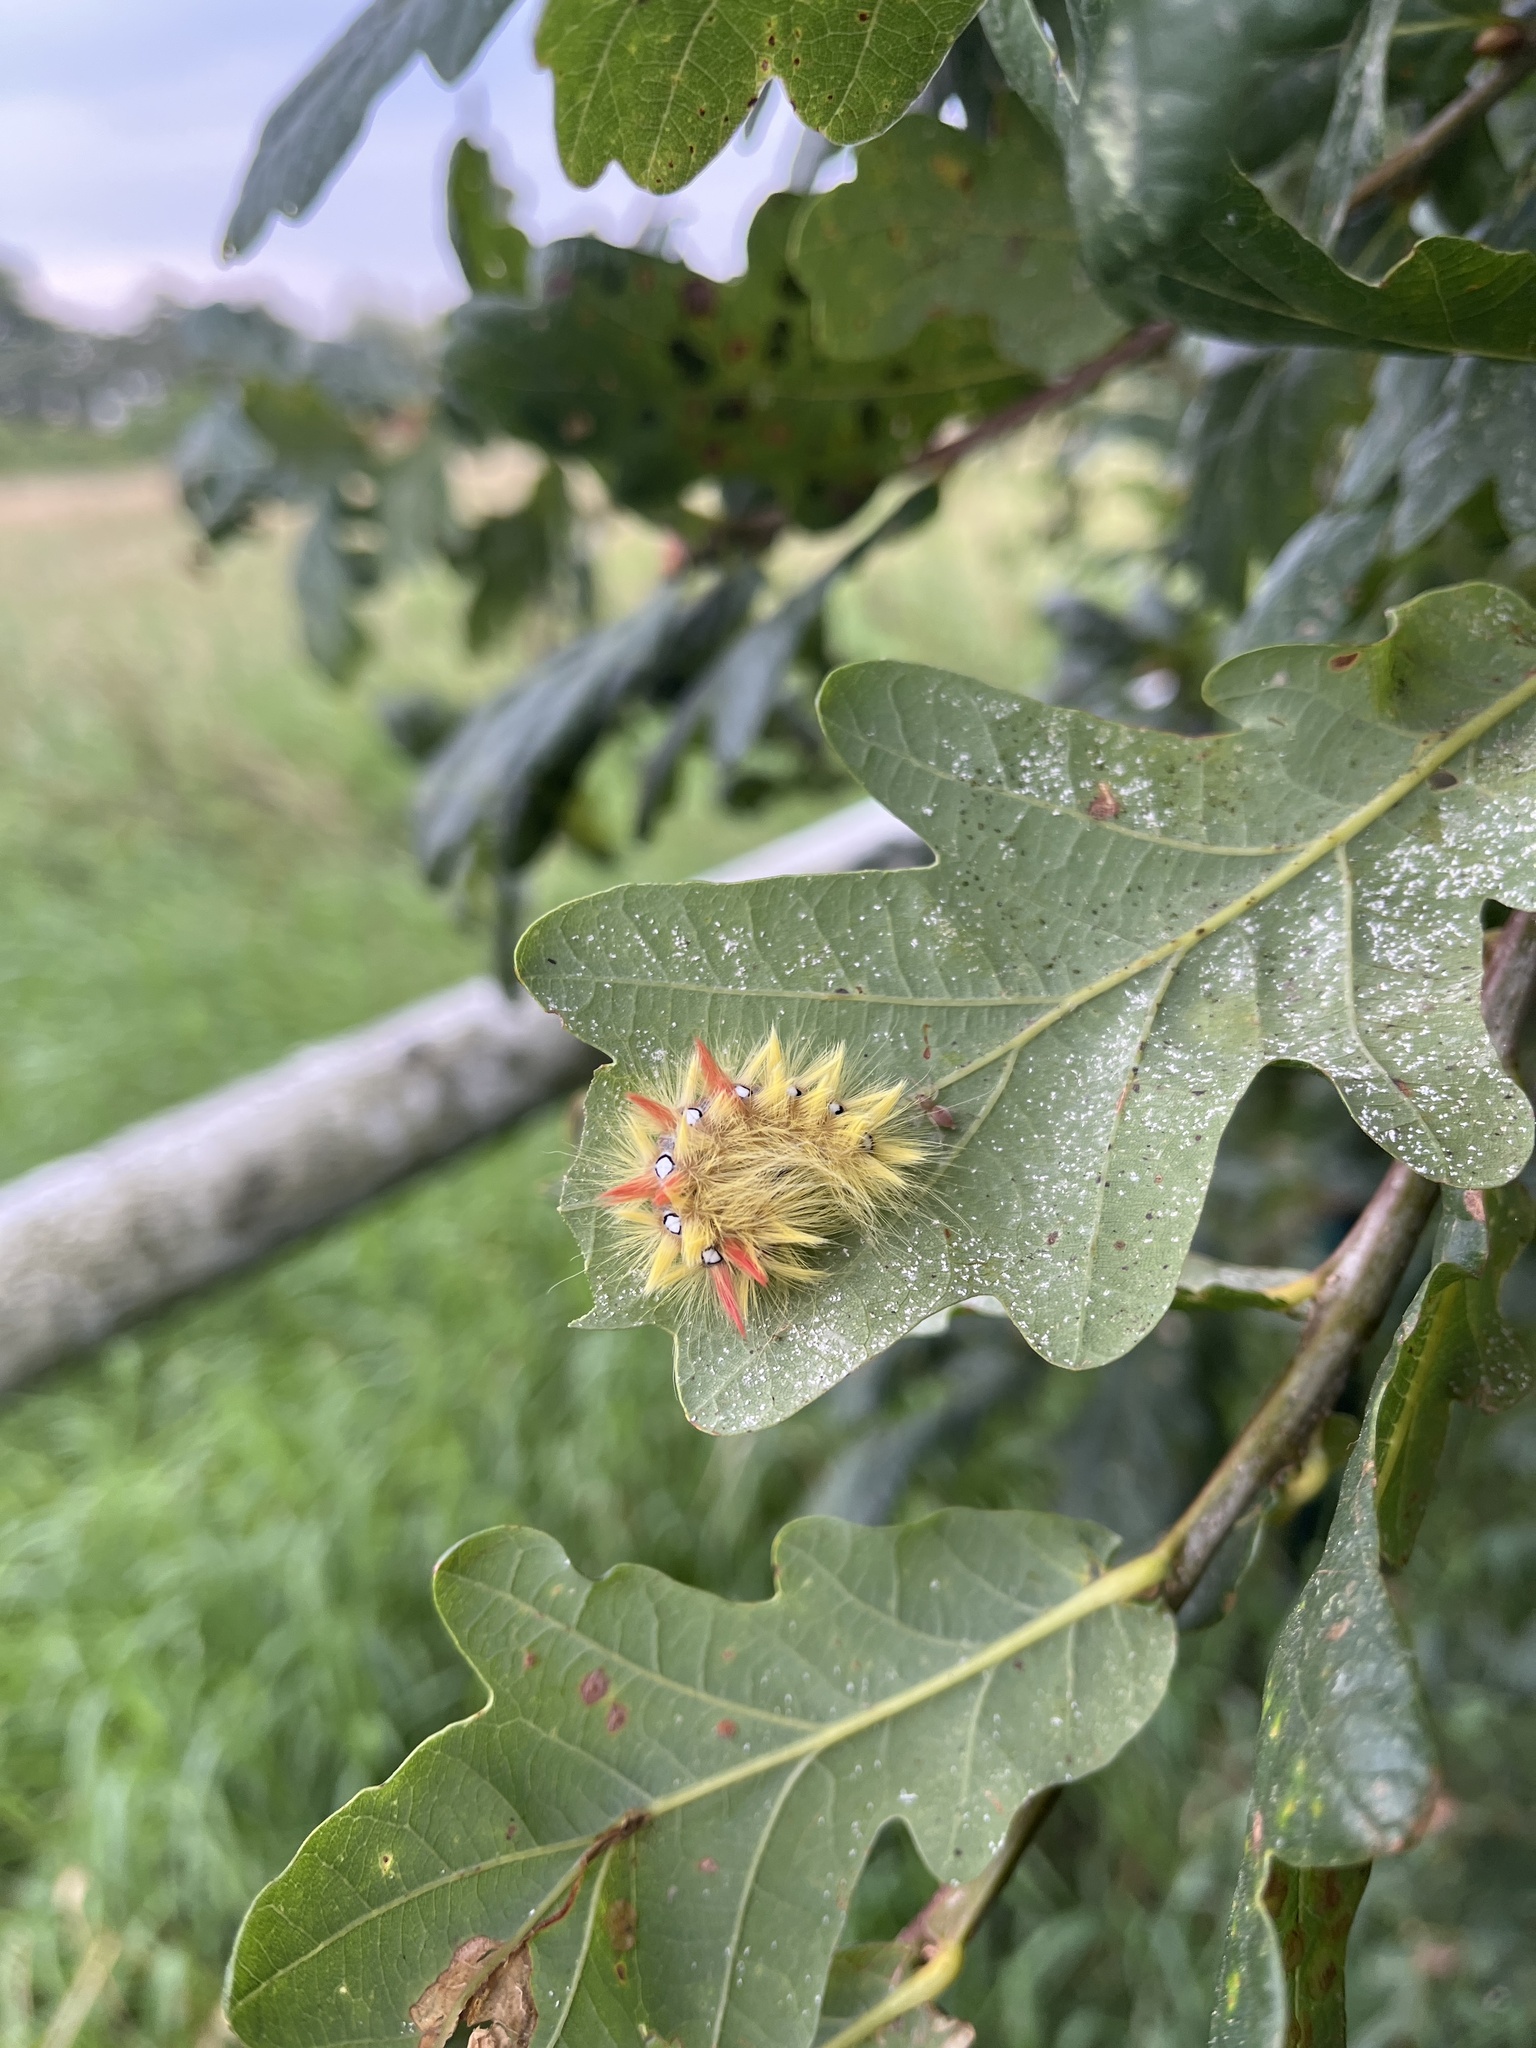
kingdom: Animalia
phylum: Arthropoda
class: Insecta
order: Lepidoptera
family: Noctuidae
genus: Acronicta
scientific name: Acronicta aceris
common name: Sycamore
